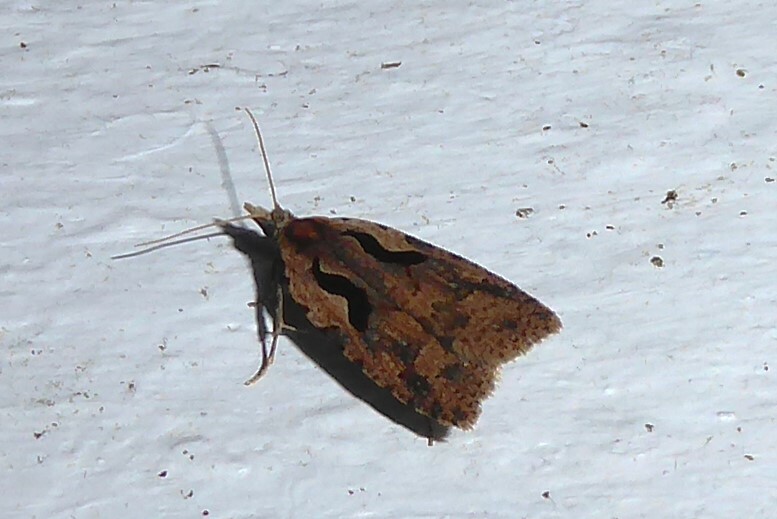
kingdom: Animalia
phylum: Arthropoda
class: Insecta
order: Lepidoptera
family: Tortricidae
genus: Cnephasia
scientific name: Cnephasia jactatana
